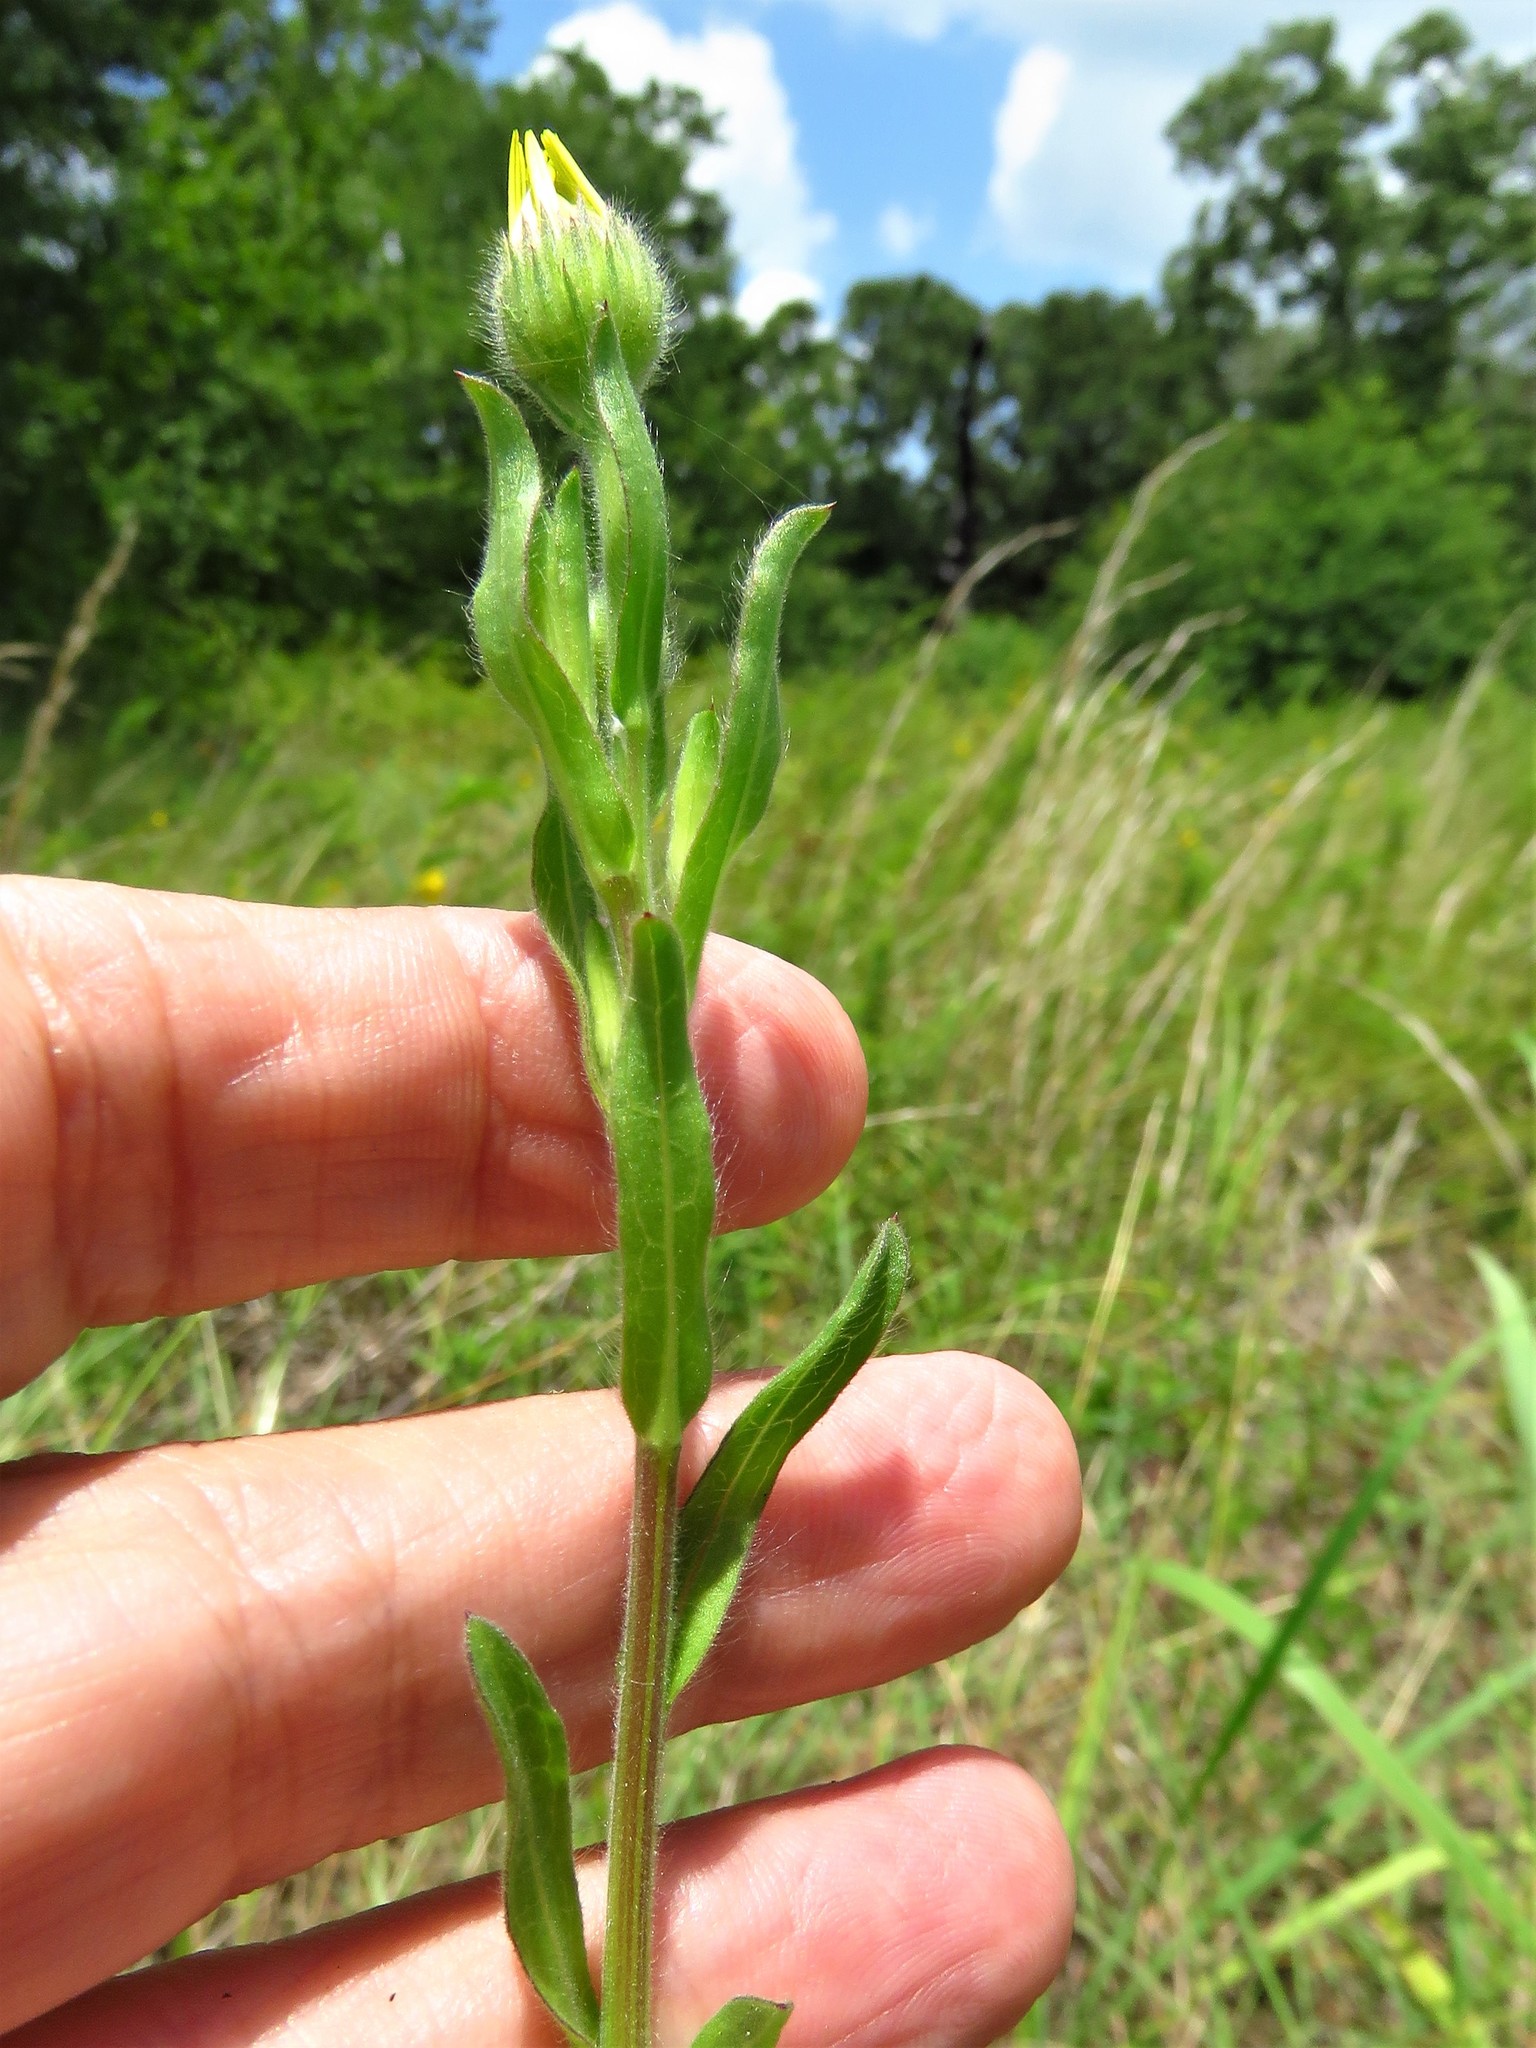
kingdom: Plantae
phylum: Tracheophyta
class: Magnoliopsida
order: Asterales
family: Asteraceae
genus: Bradburia
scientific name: Bradburia pilosa
